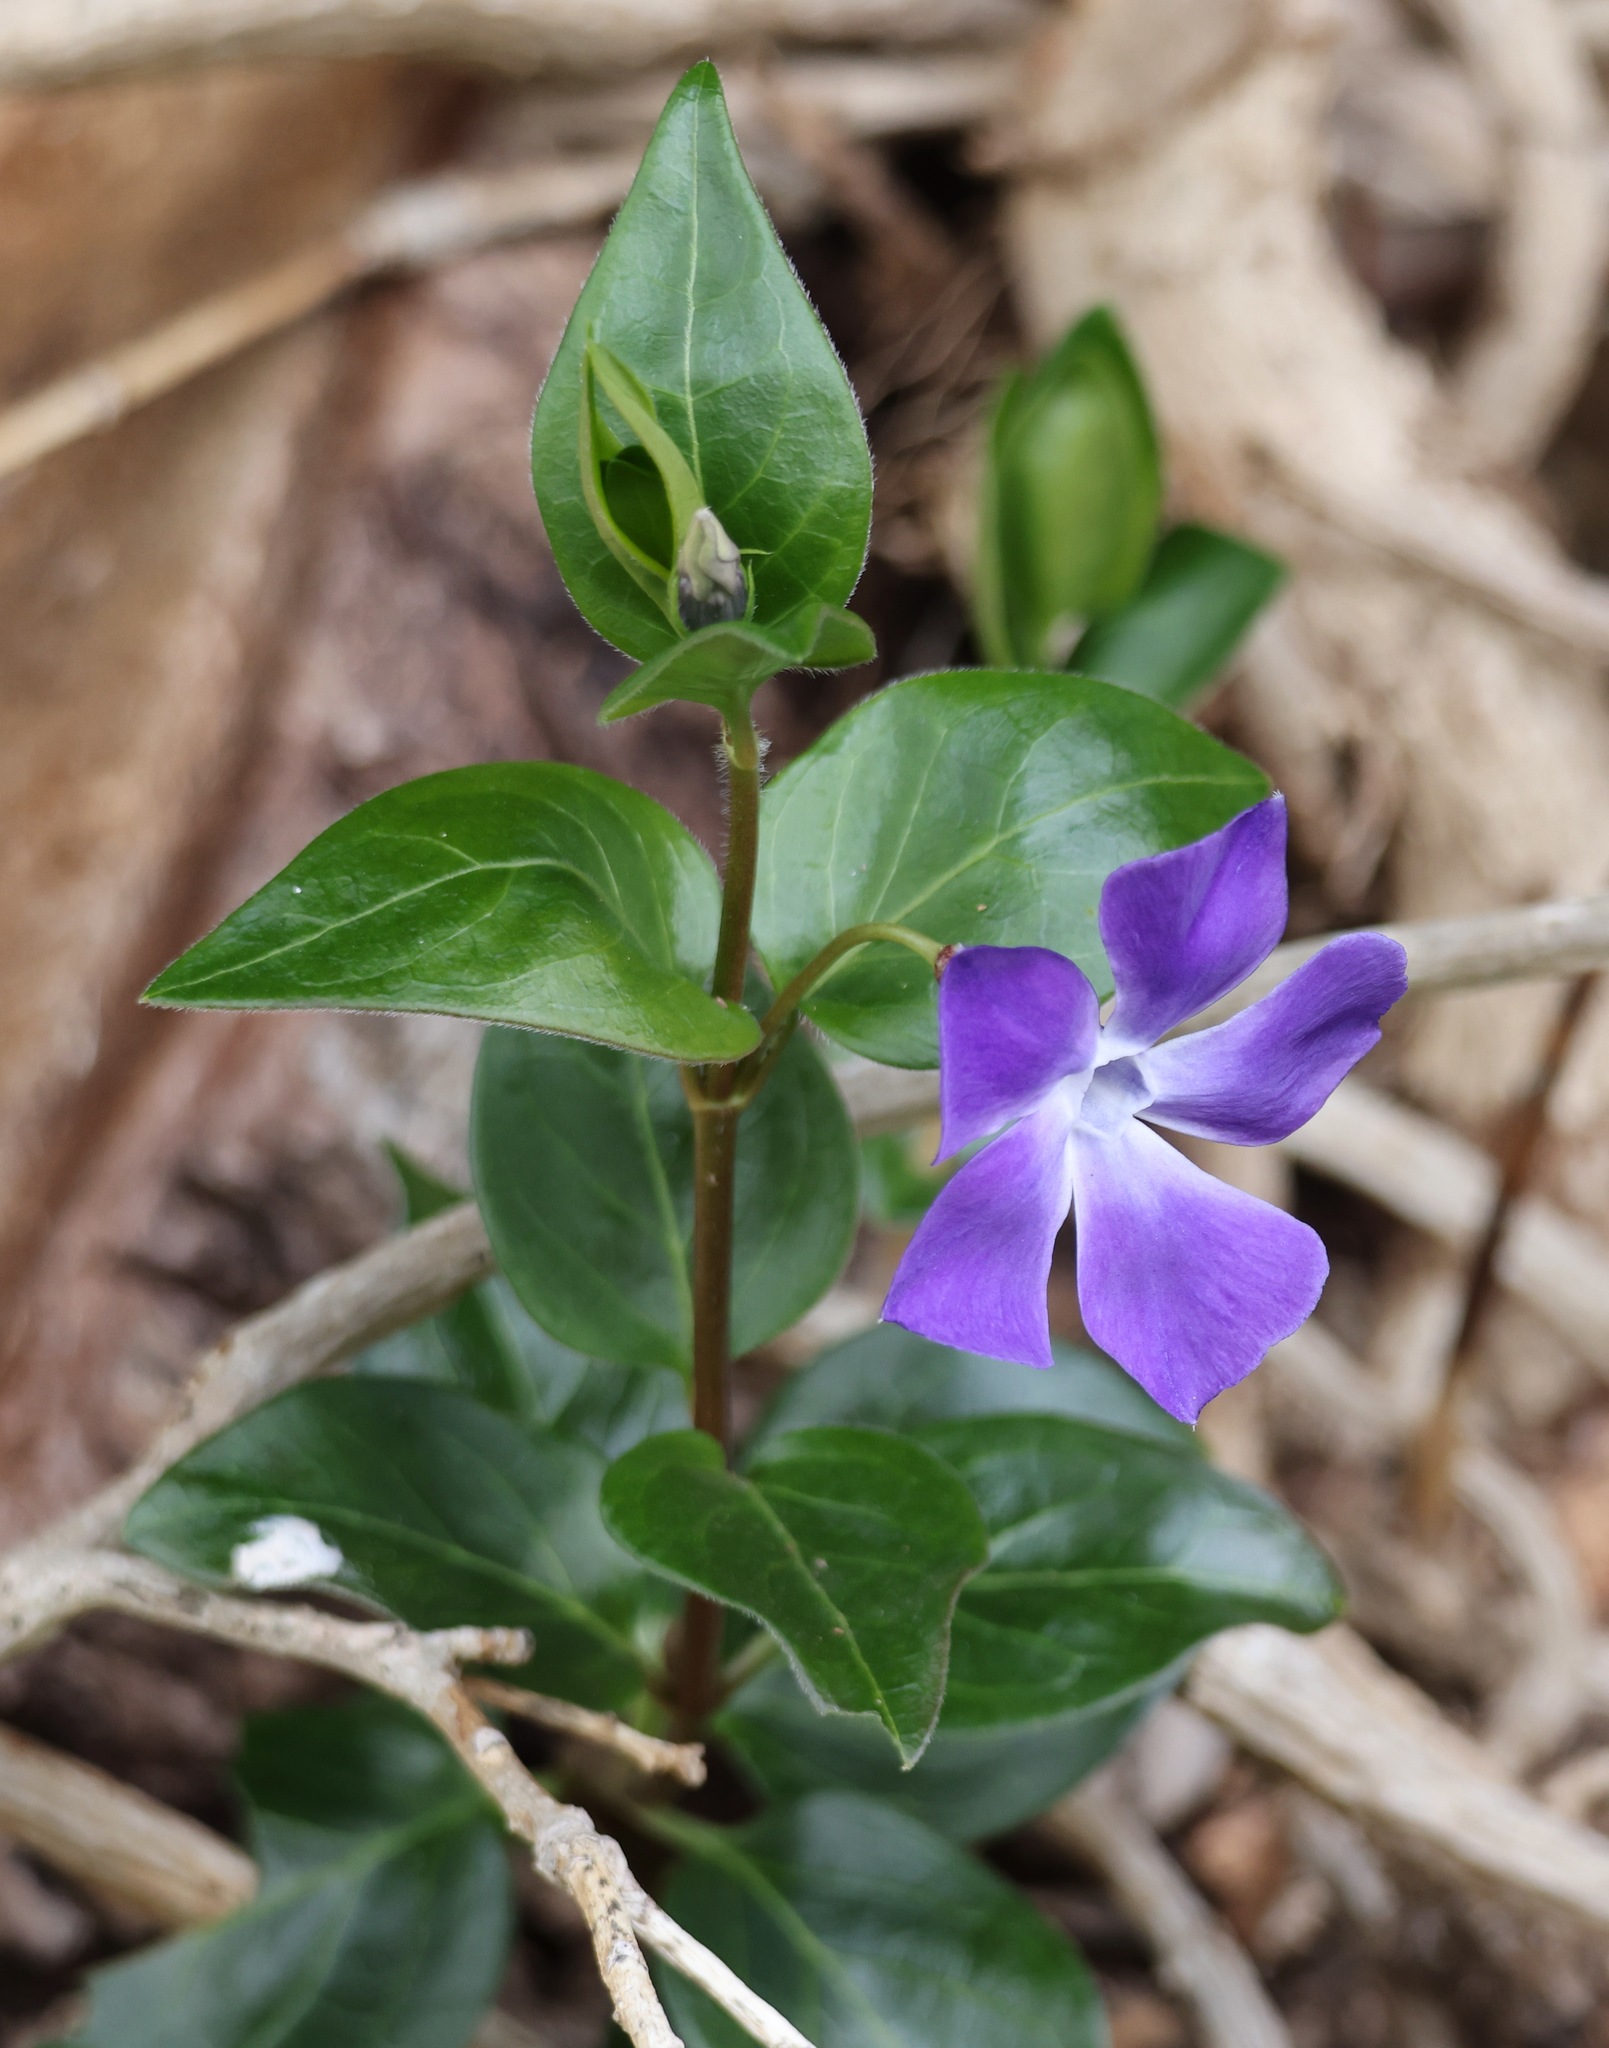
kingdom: Plantae
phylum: Tracheophyta
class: Magnoliopsida
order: Gentianales
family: Apocynaceae
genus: Vinca
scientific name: Vinca major
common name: Greater periwinkle
